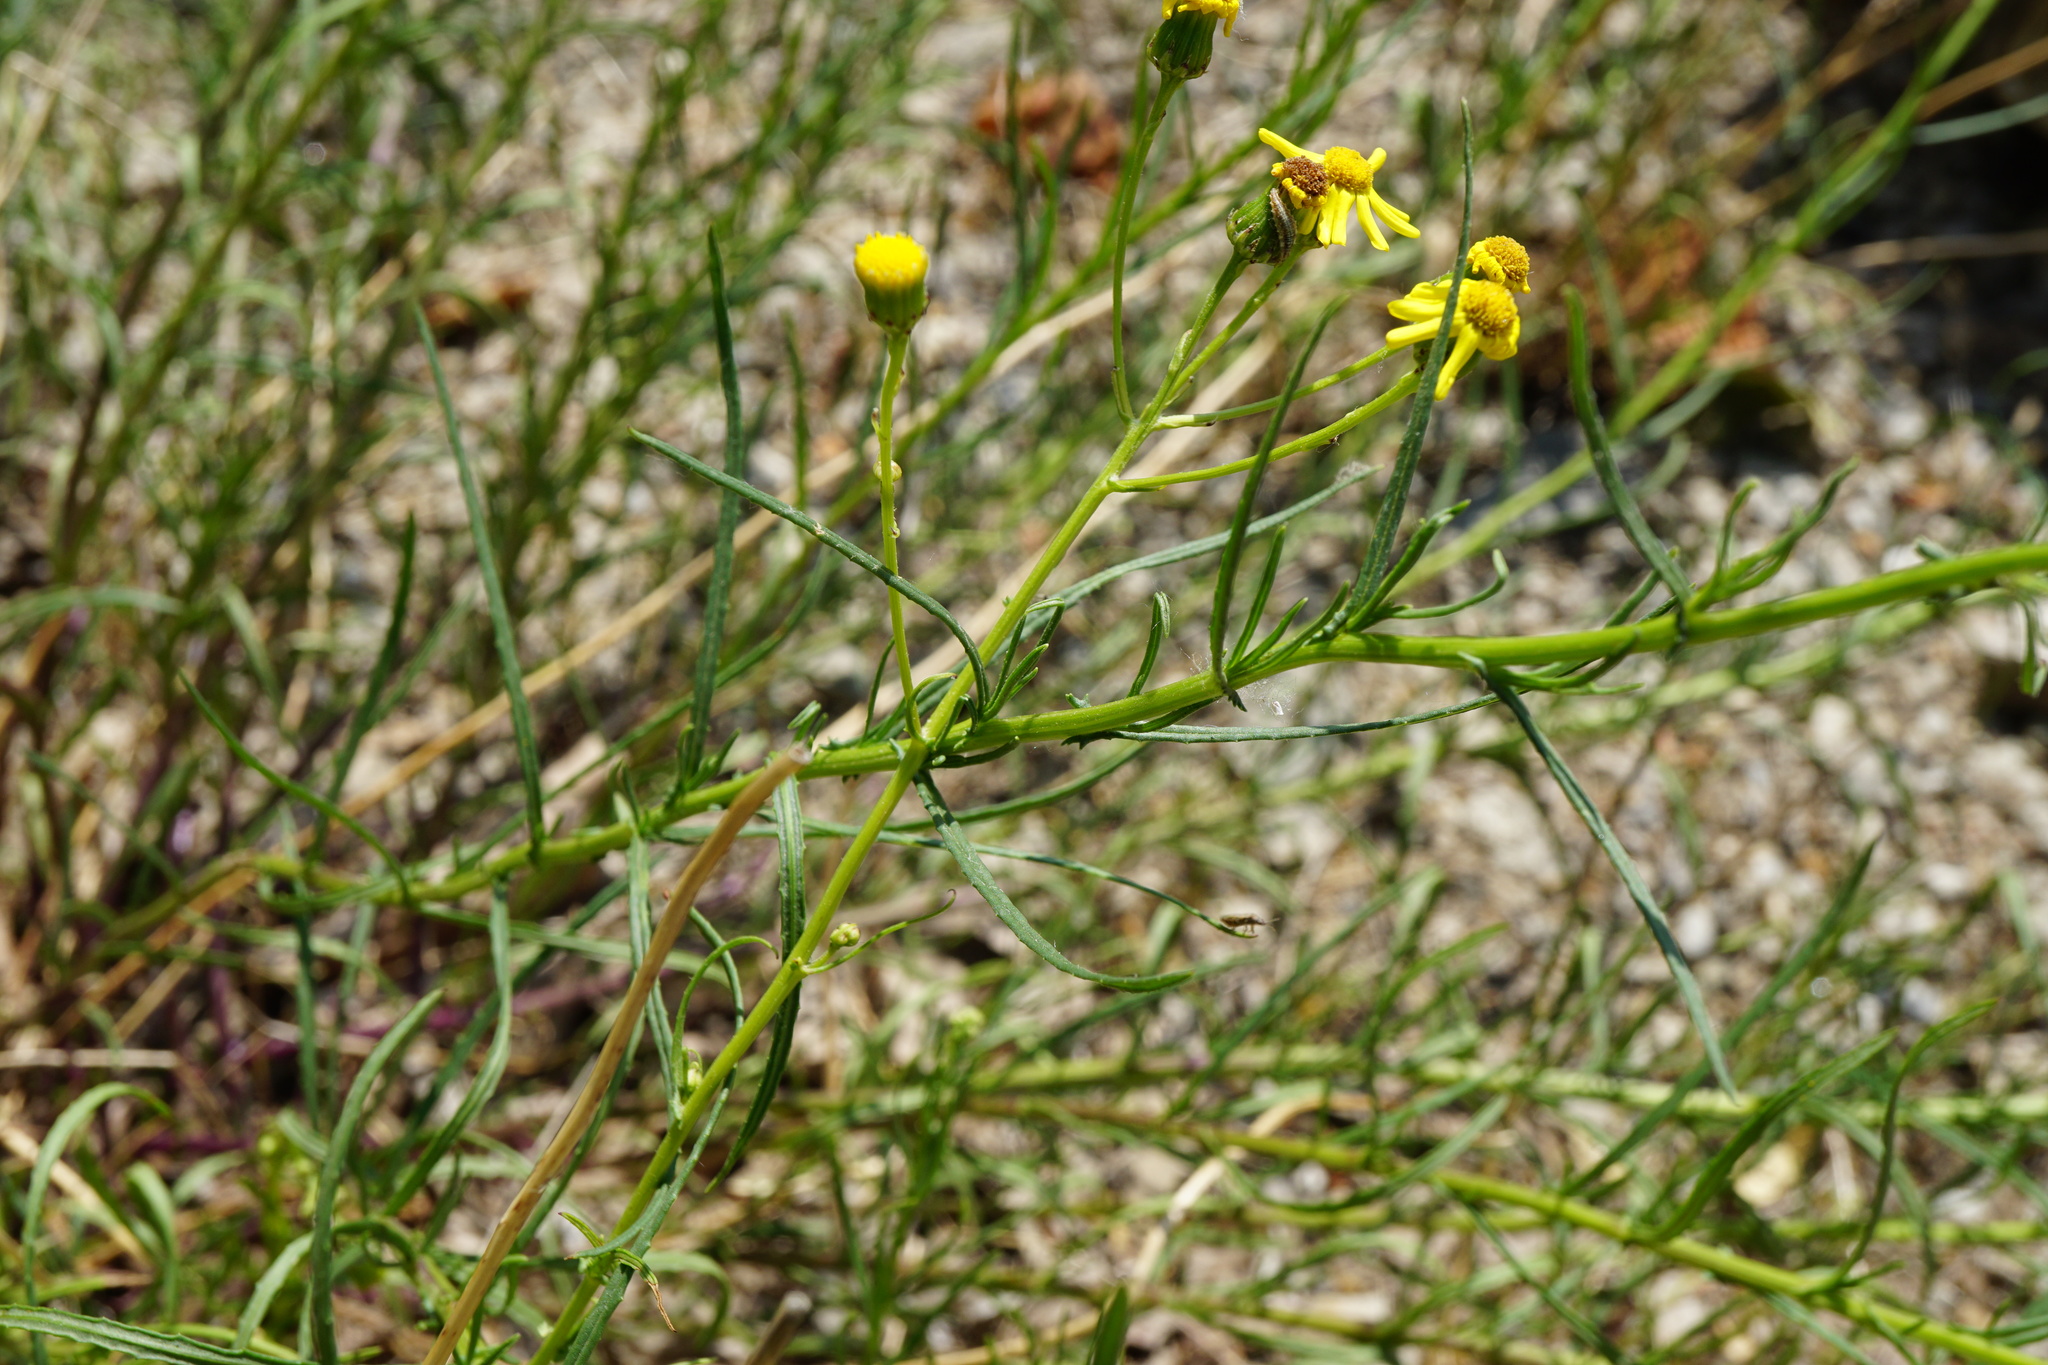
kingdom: Plantae
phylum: Tracheophyta
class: Magnoliopsida
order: Asterales
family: Asteraceae
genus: Senecio
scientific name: Senecio inaequidens
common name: Narrow-leaved ragwort
